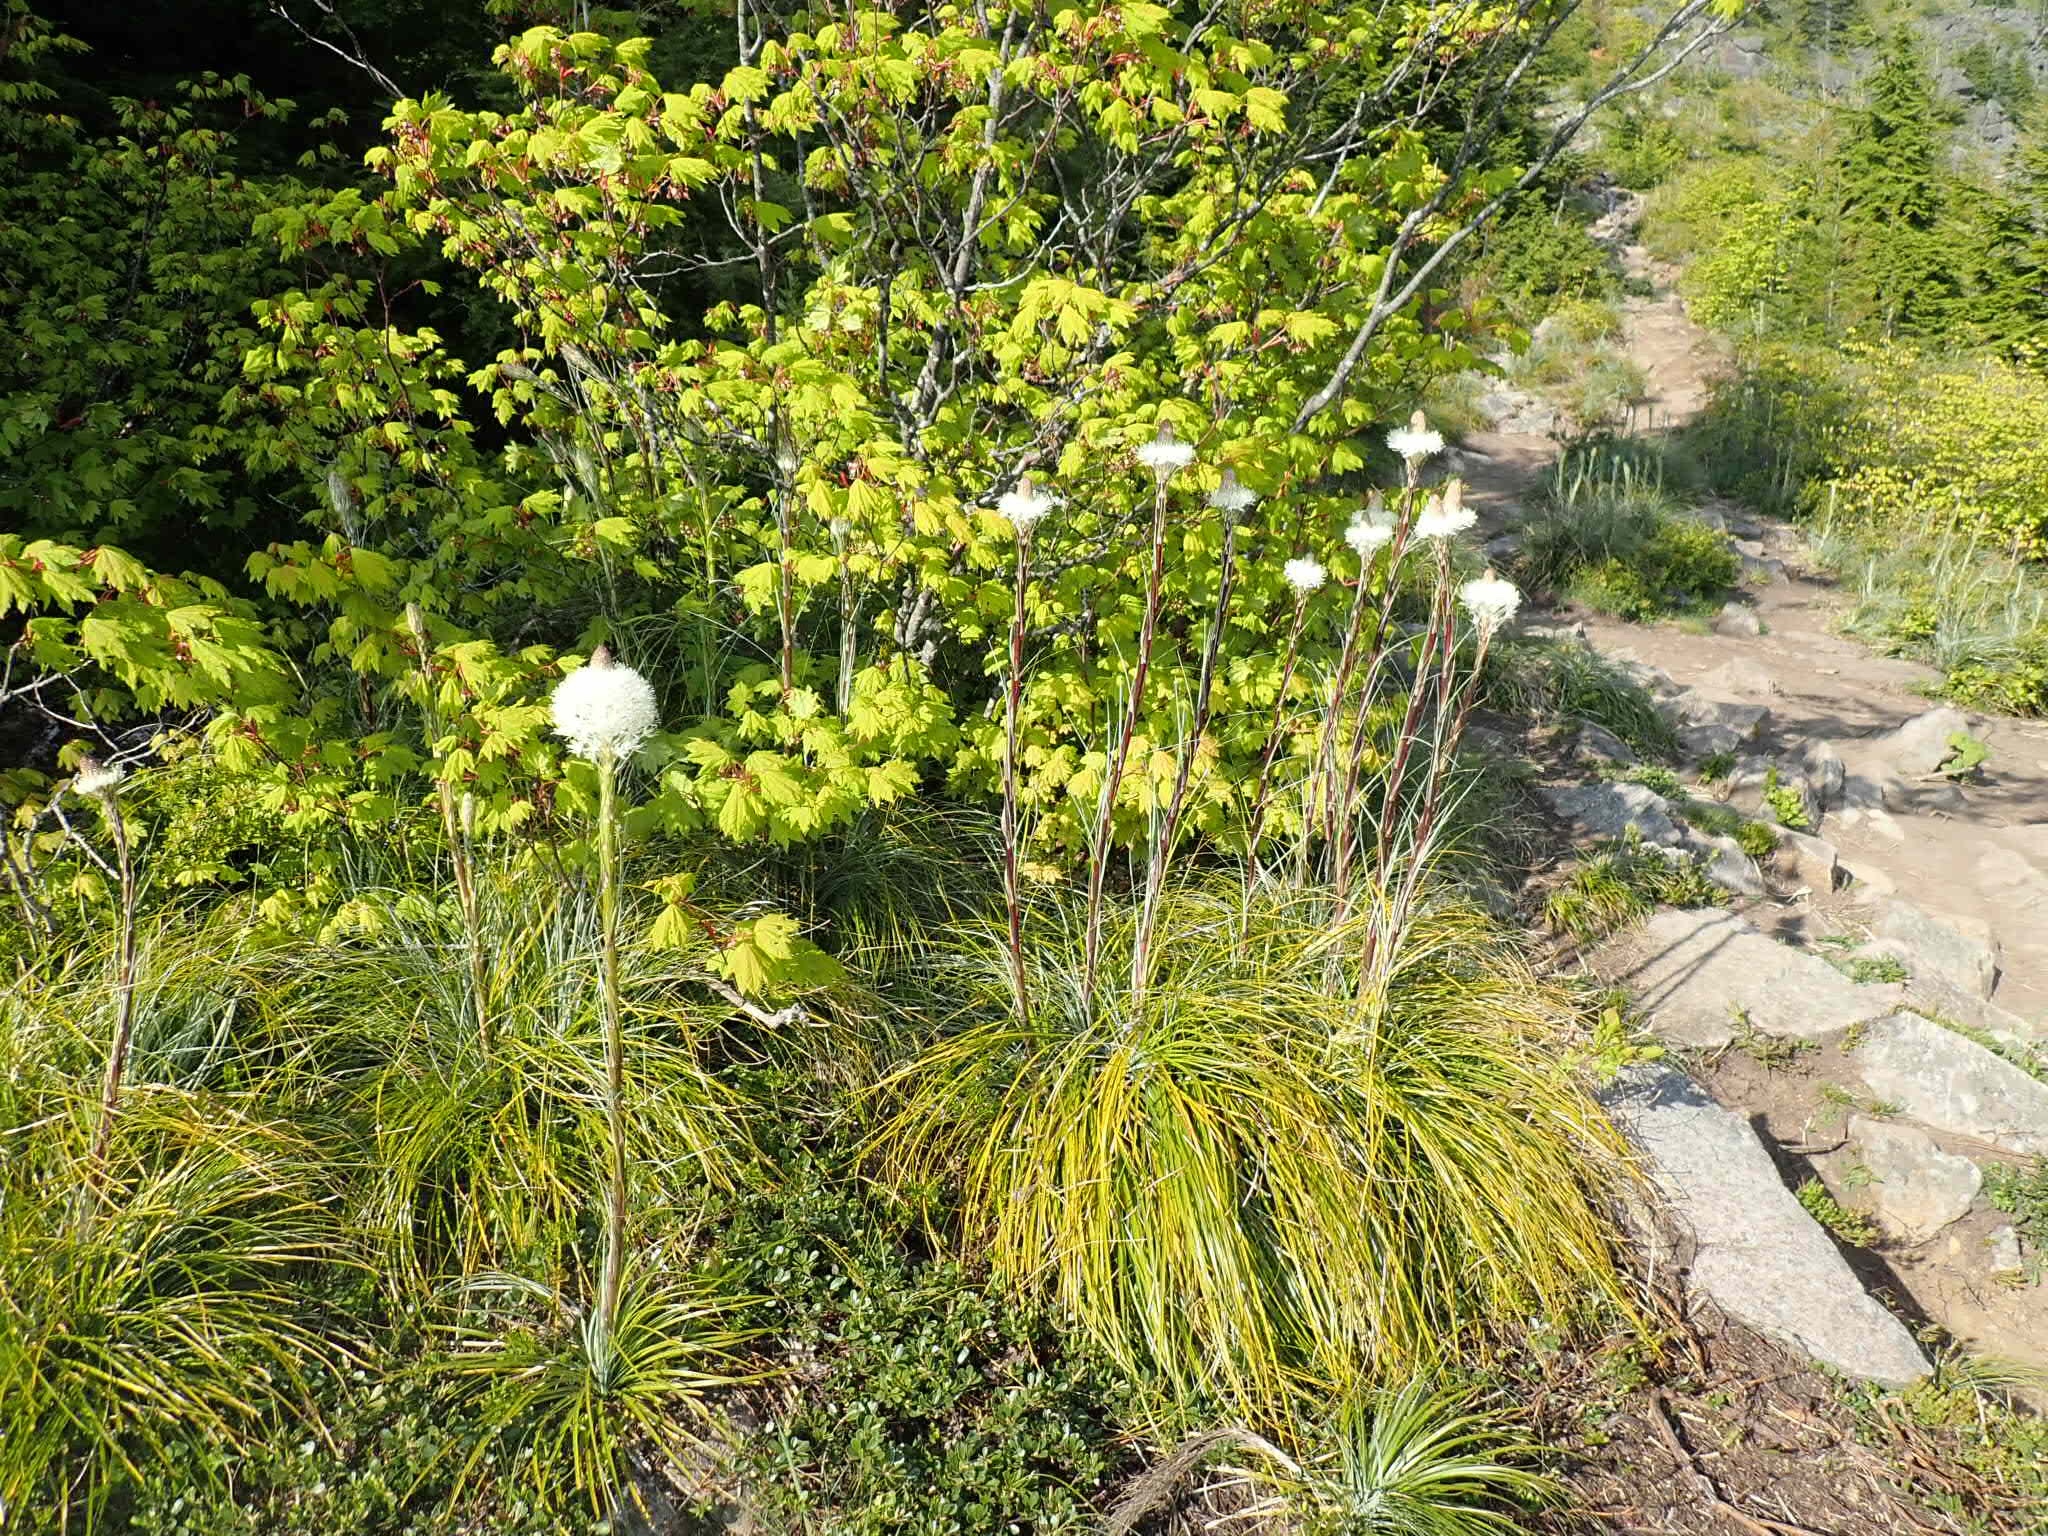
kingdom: Plantae
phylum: Tracheophyta
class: Liliopsida
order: Liliales
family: Melanthiaceae
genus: Xerophyllum
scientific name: Xerophyllum tenax
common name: Bear-grass
